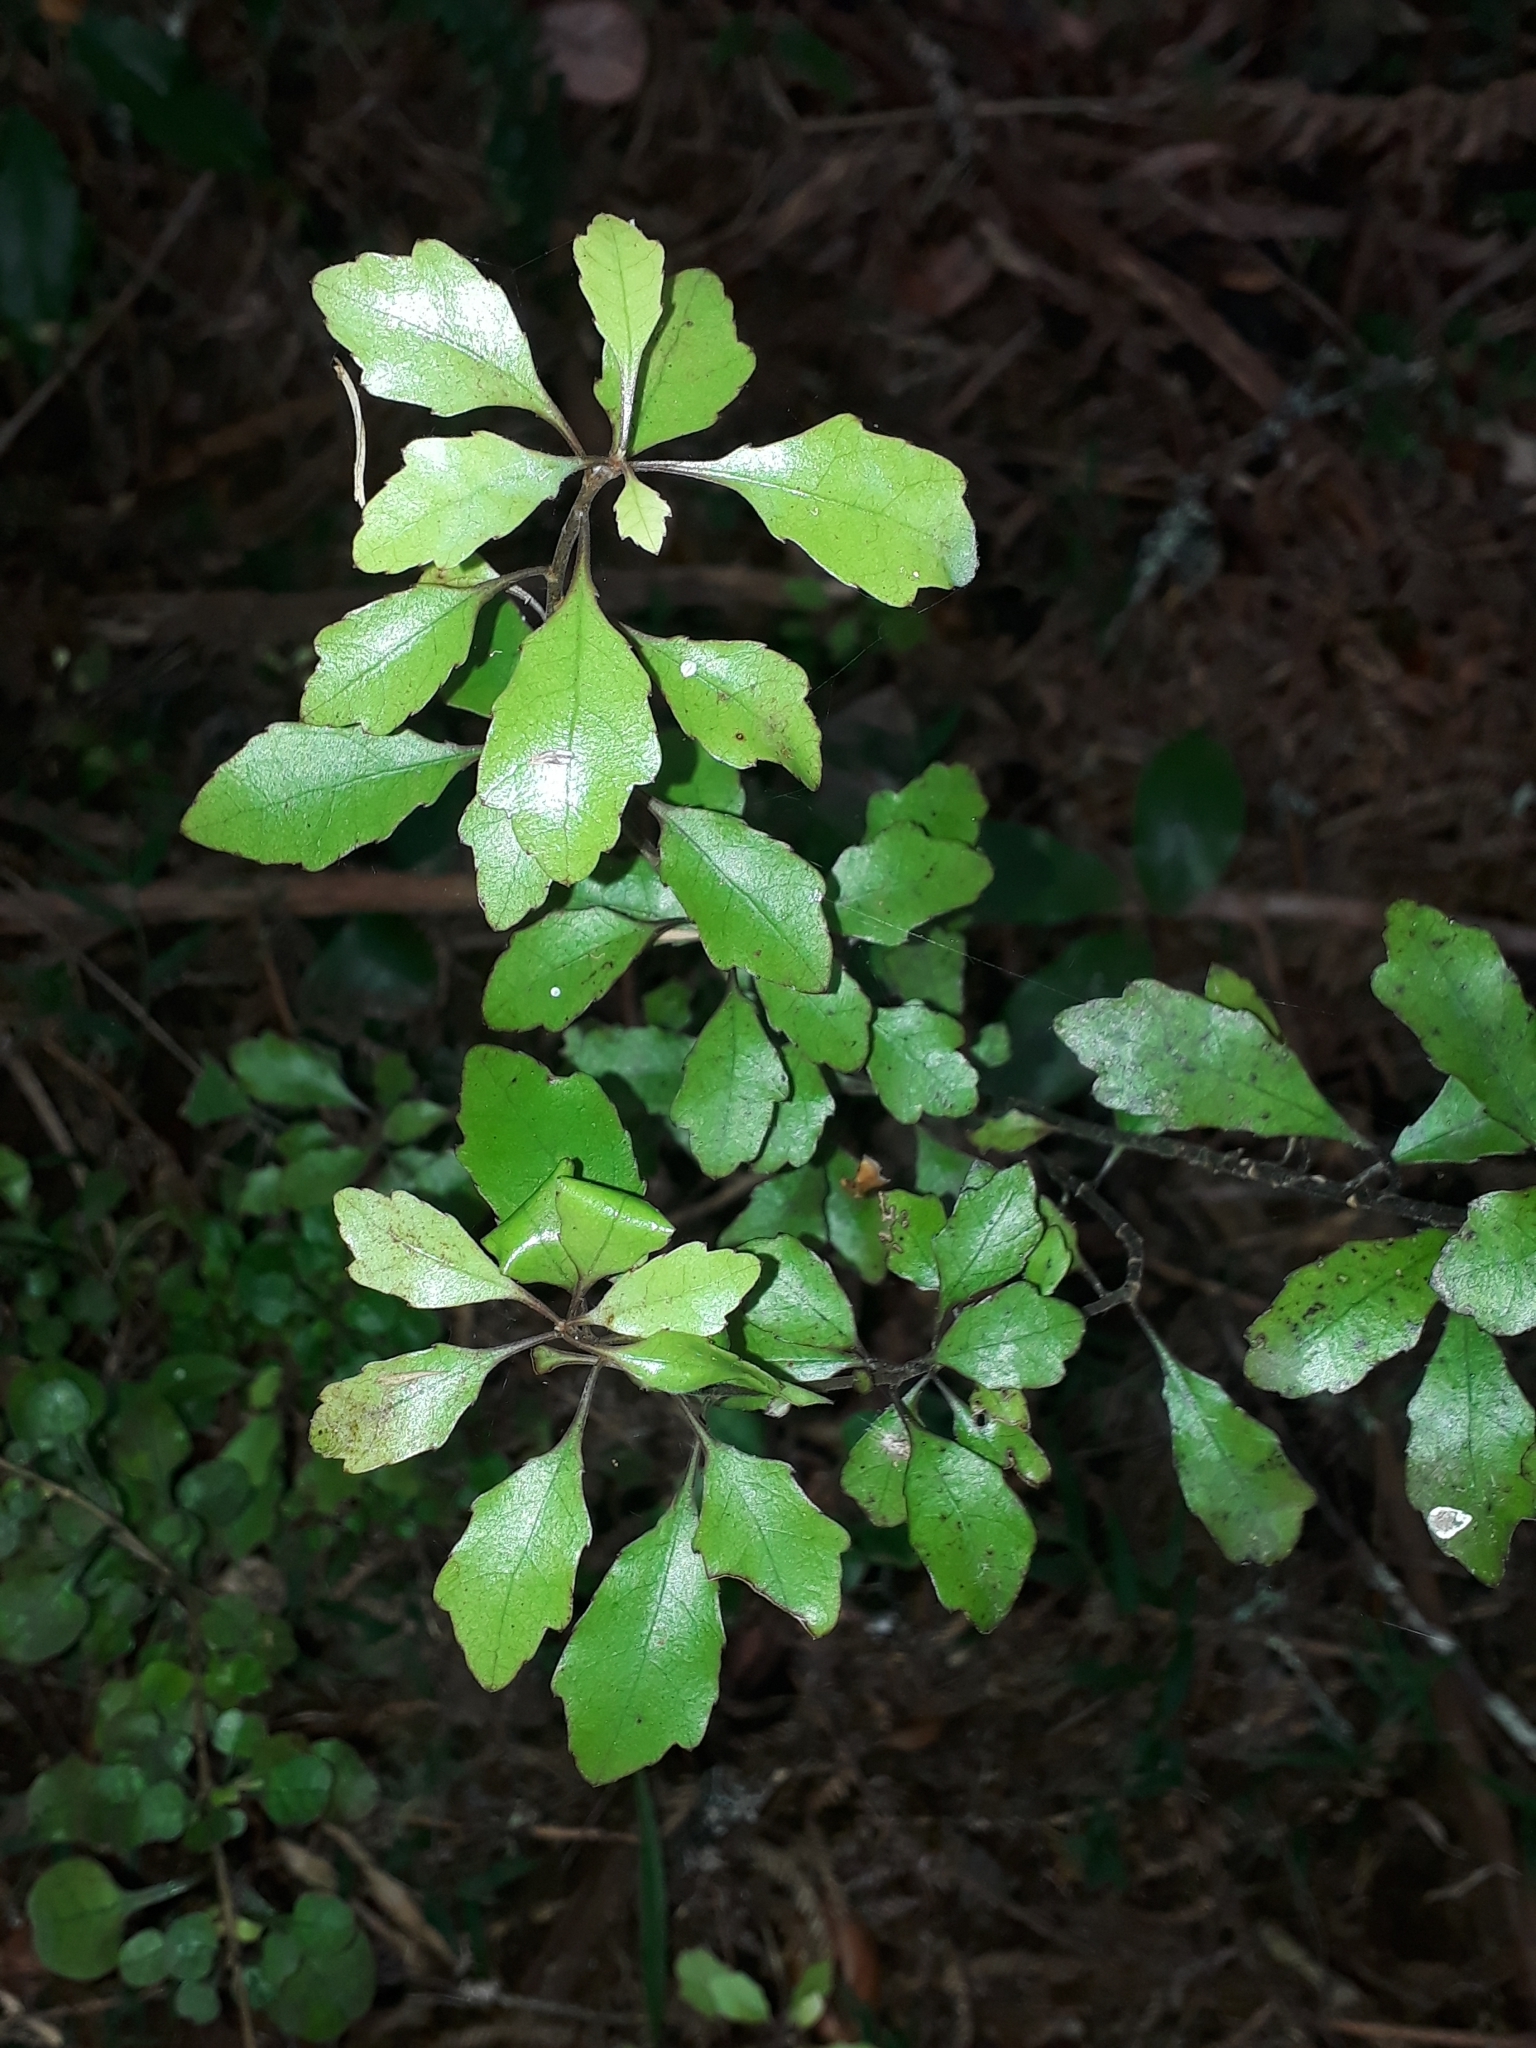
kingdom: Plantae
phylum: Tracheophyta
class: Magnoliopsida
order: Asterales
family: Alseuosmiaceae
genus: Alseuosmia
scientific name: Alseuosmia banksii
